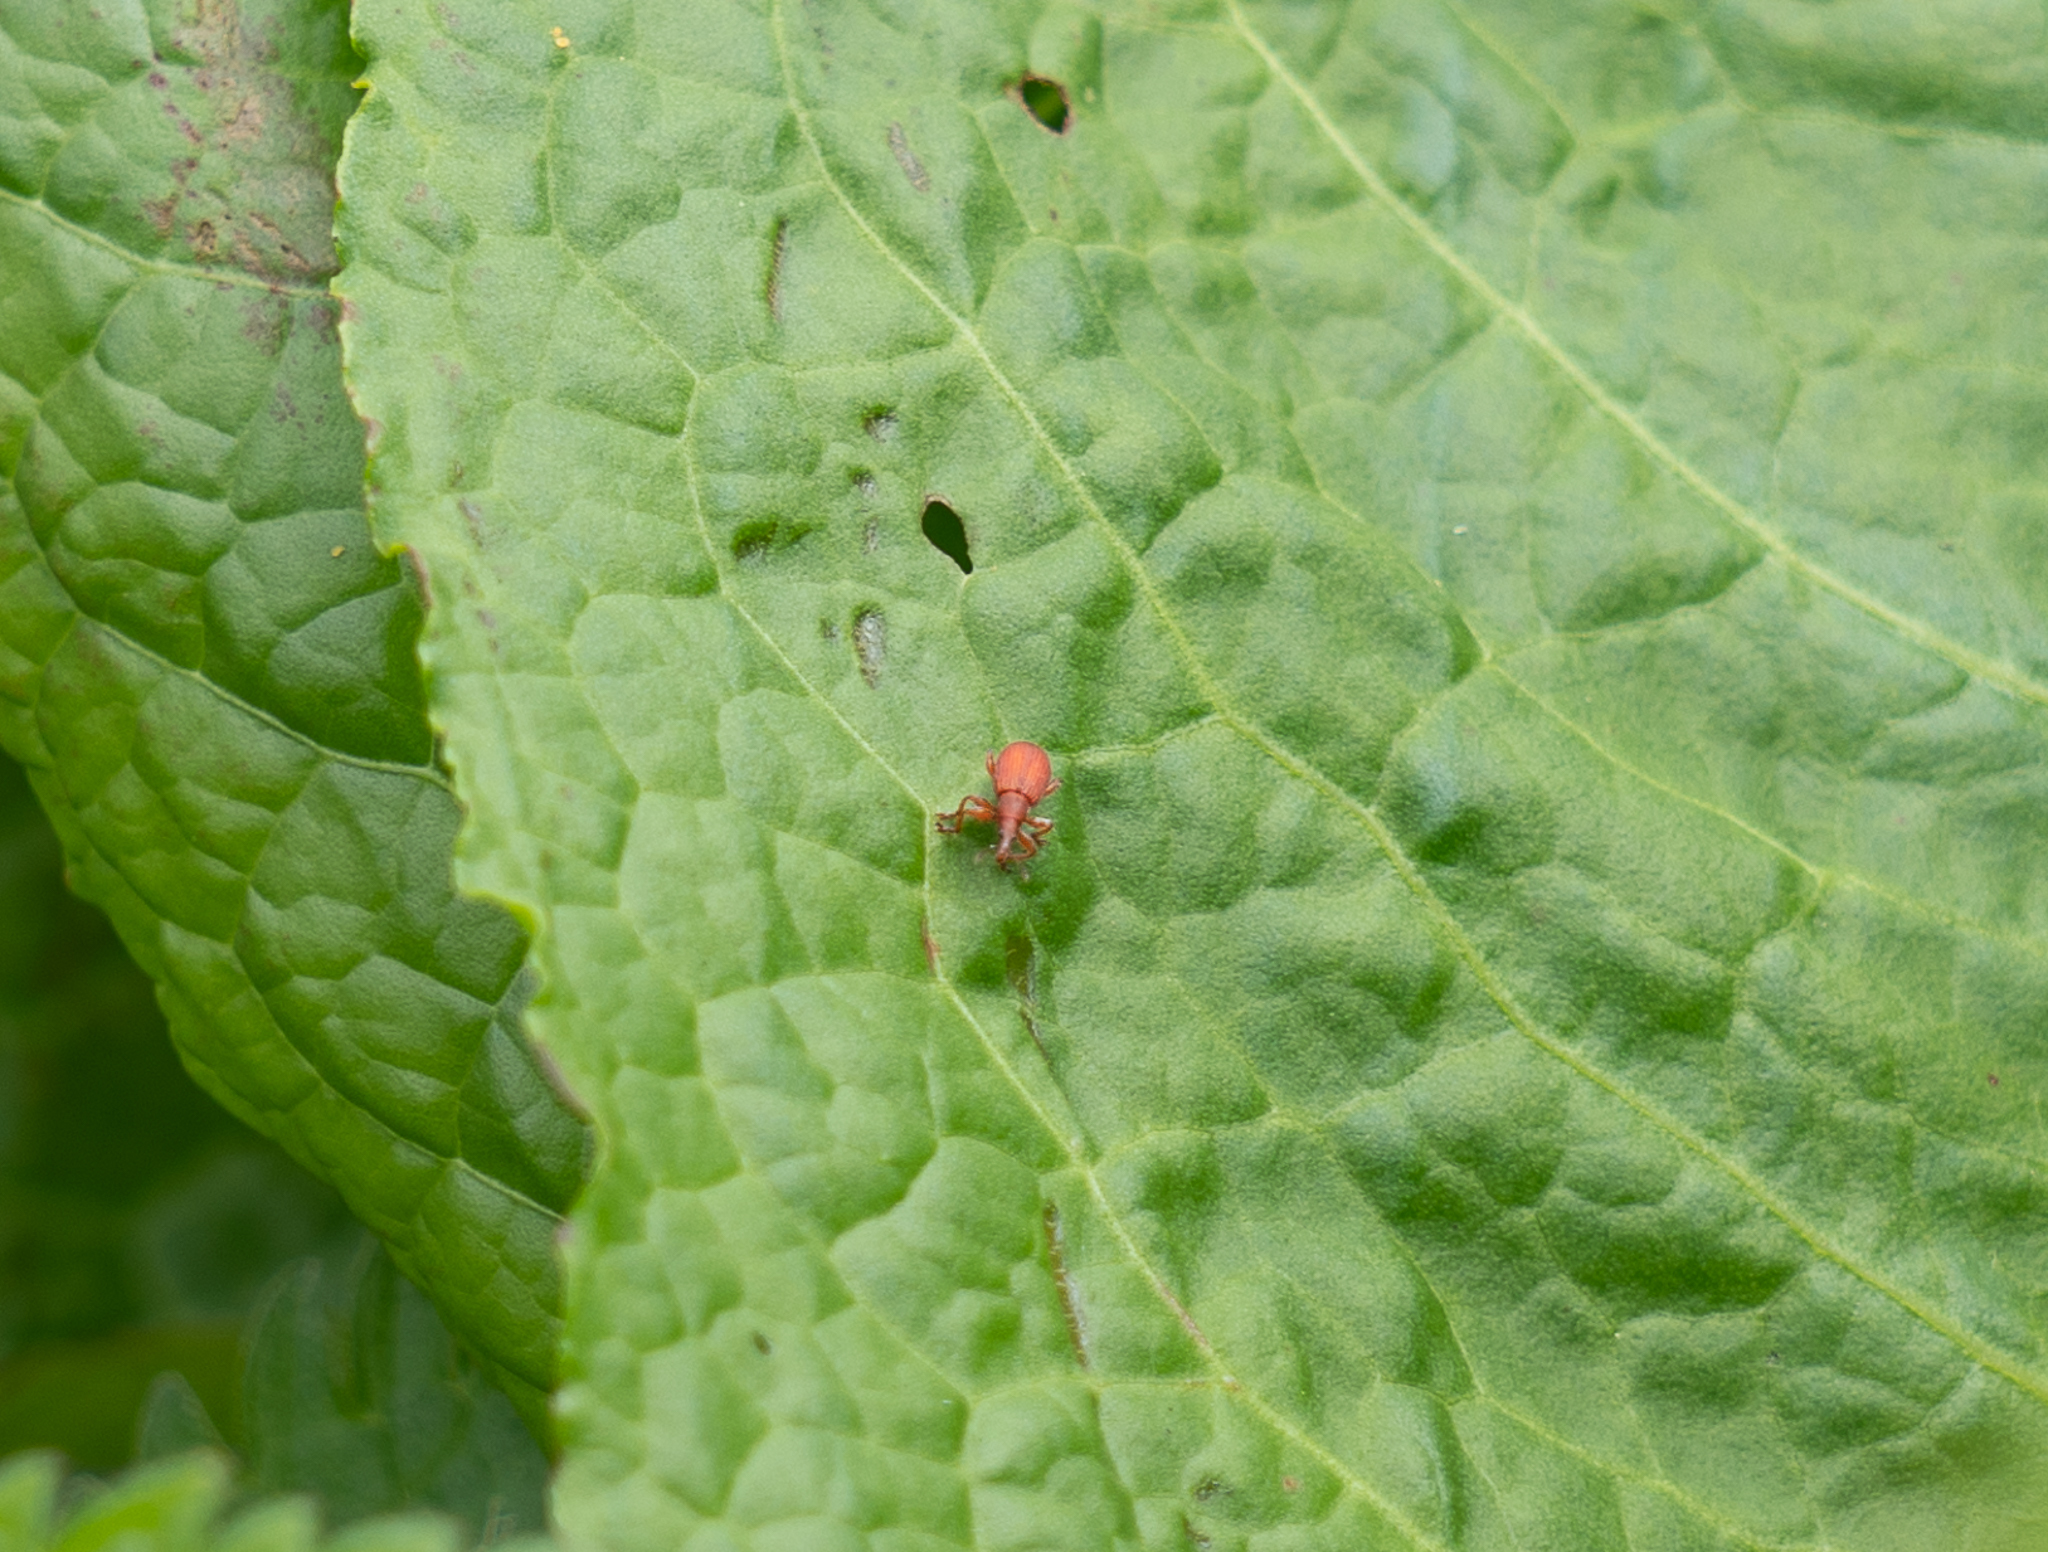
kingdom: Animalia
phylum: Arthropoda
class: Insecta
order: Coleoptera
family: Apionidae
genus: Apion
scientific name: Apion frumentarium
